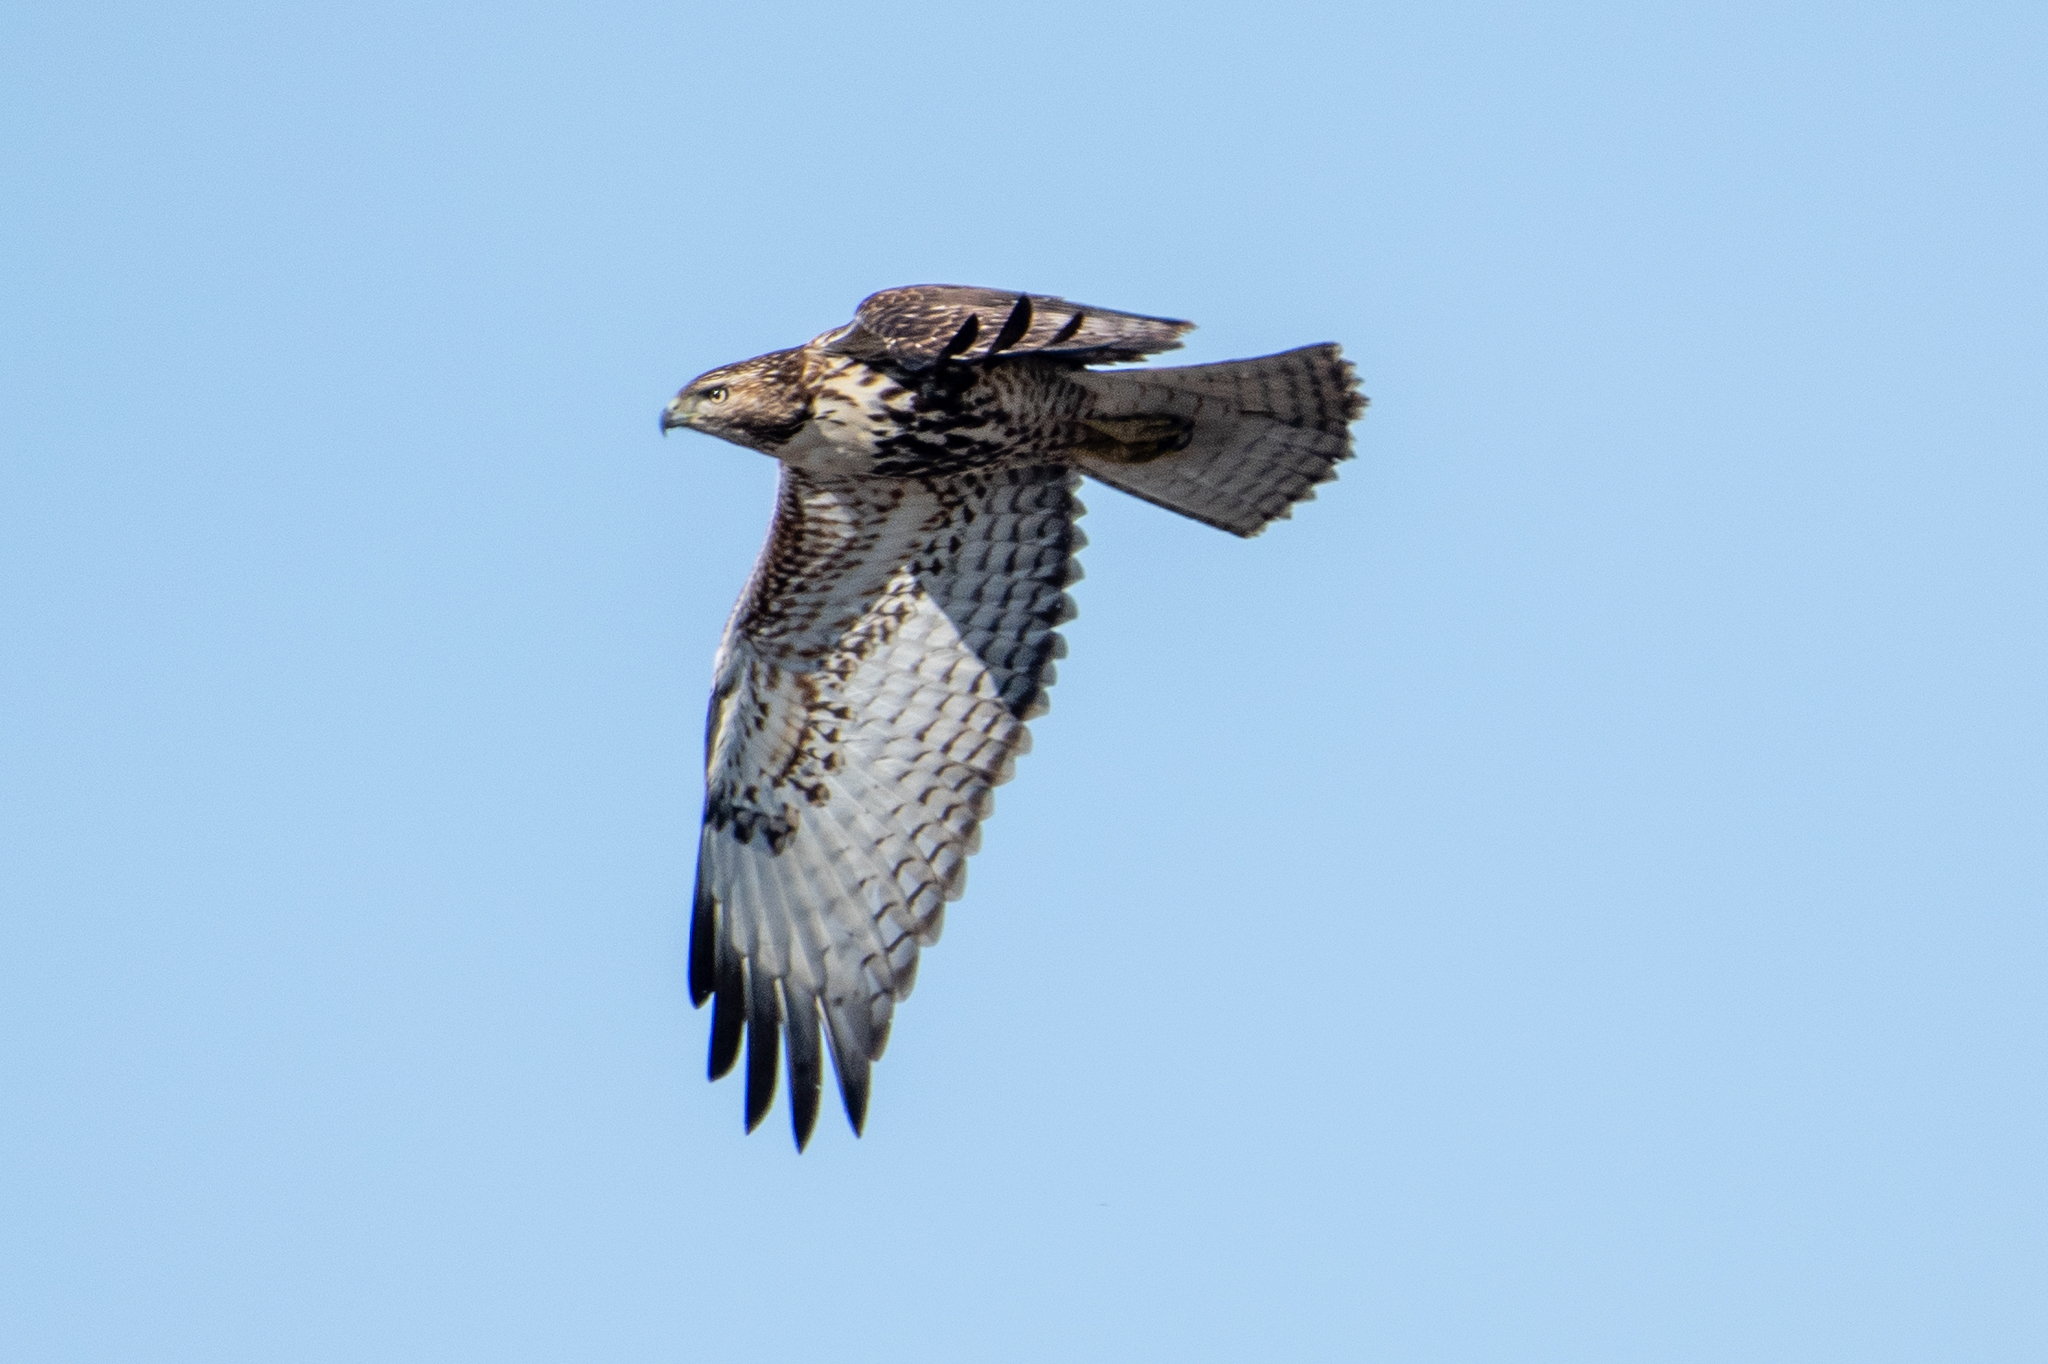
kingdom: Animalia
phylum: Chordata
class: Aves
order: Accipitriformes
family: Accipitridae
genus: Buteo
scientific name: Buteo jamaicensis
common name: Red-tailed hawk
